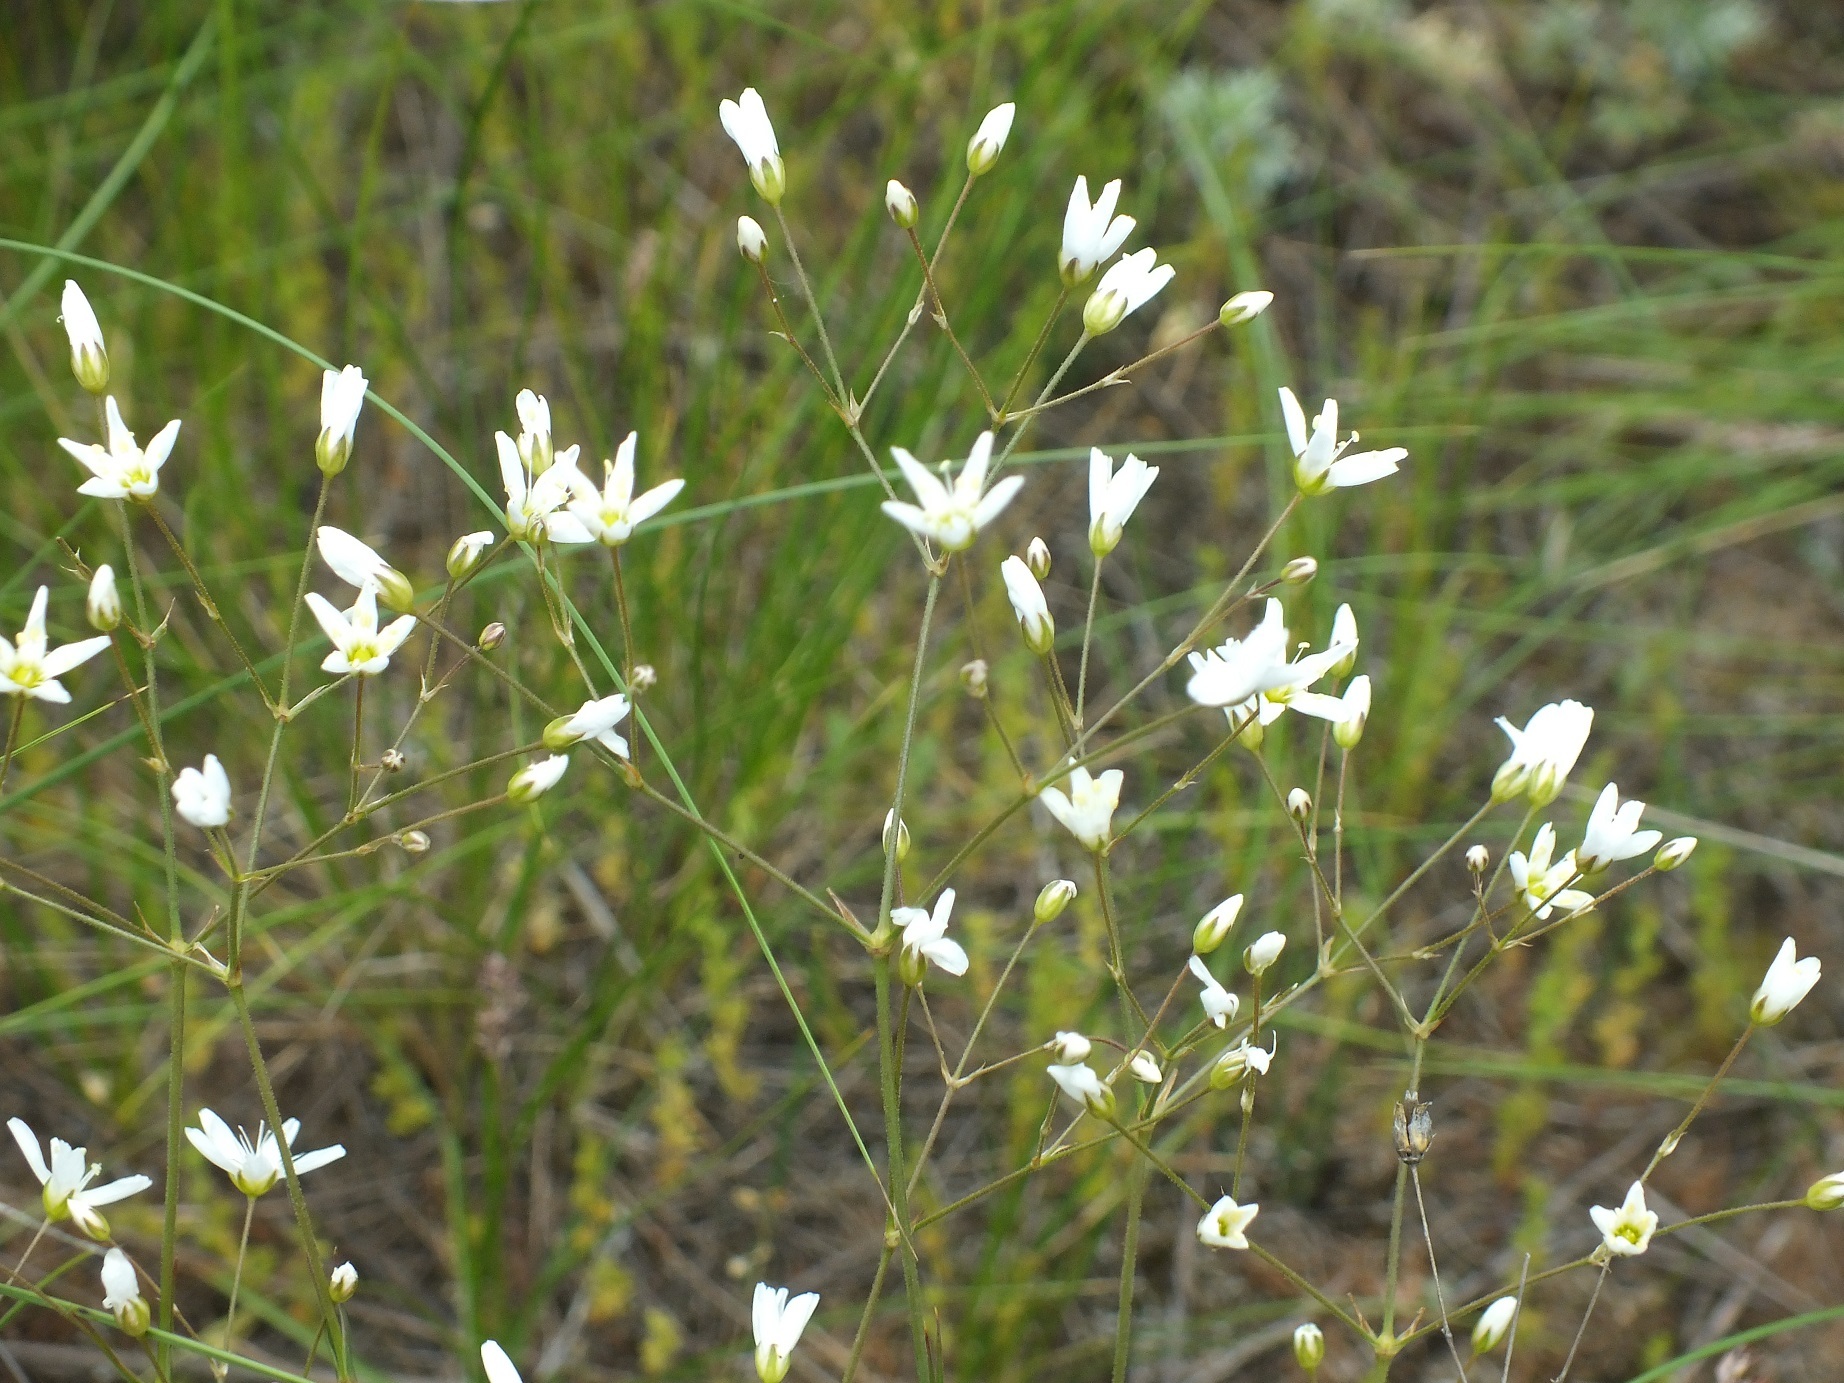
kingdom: Plantae
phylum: Tracheophyta
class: Magnoliopsida
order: Caryophyllales
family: Caryophyllaceae
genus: Eremogone
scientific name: Eremogone biebersteinii
